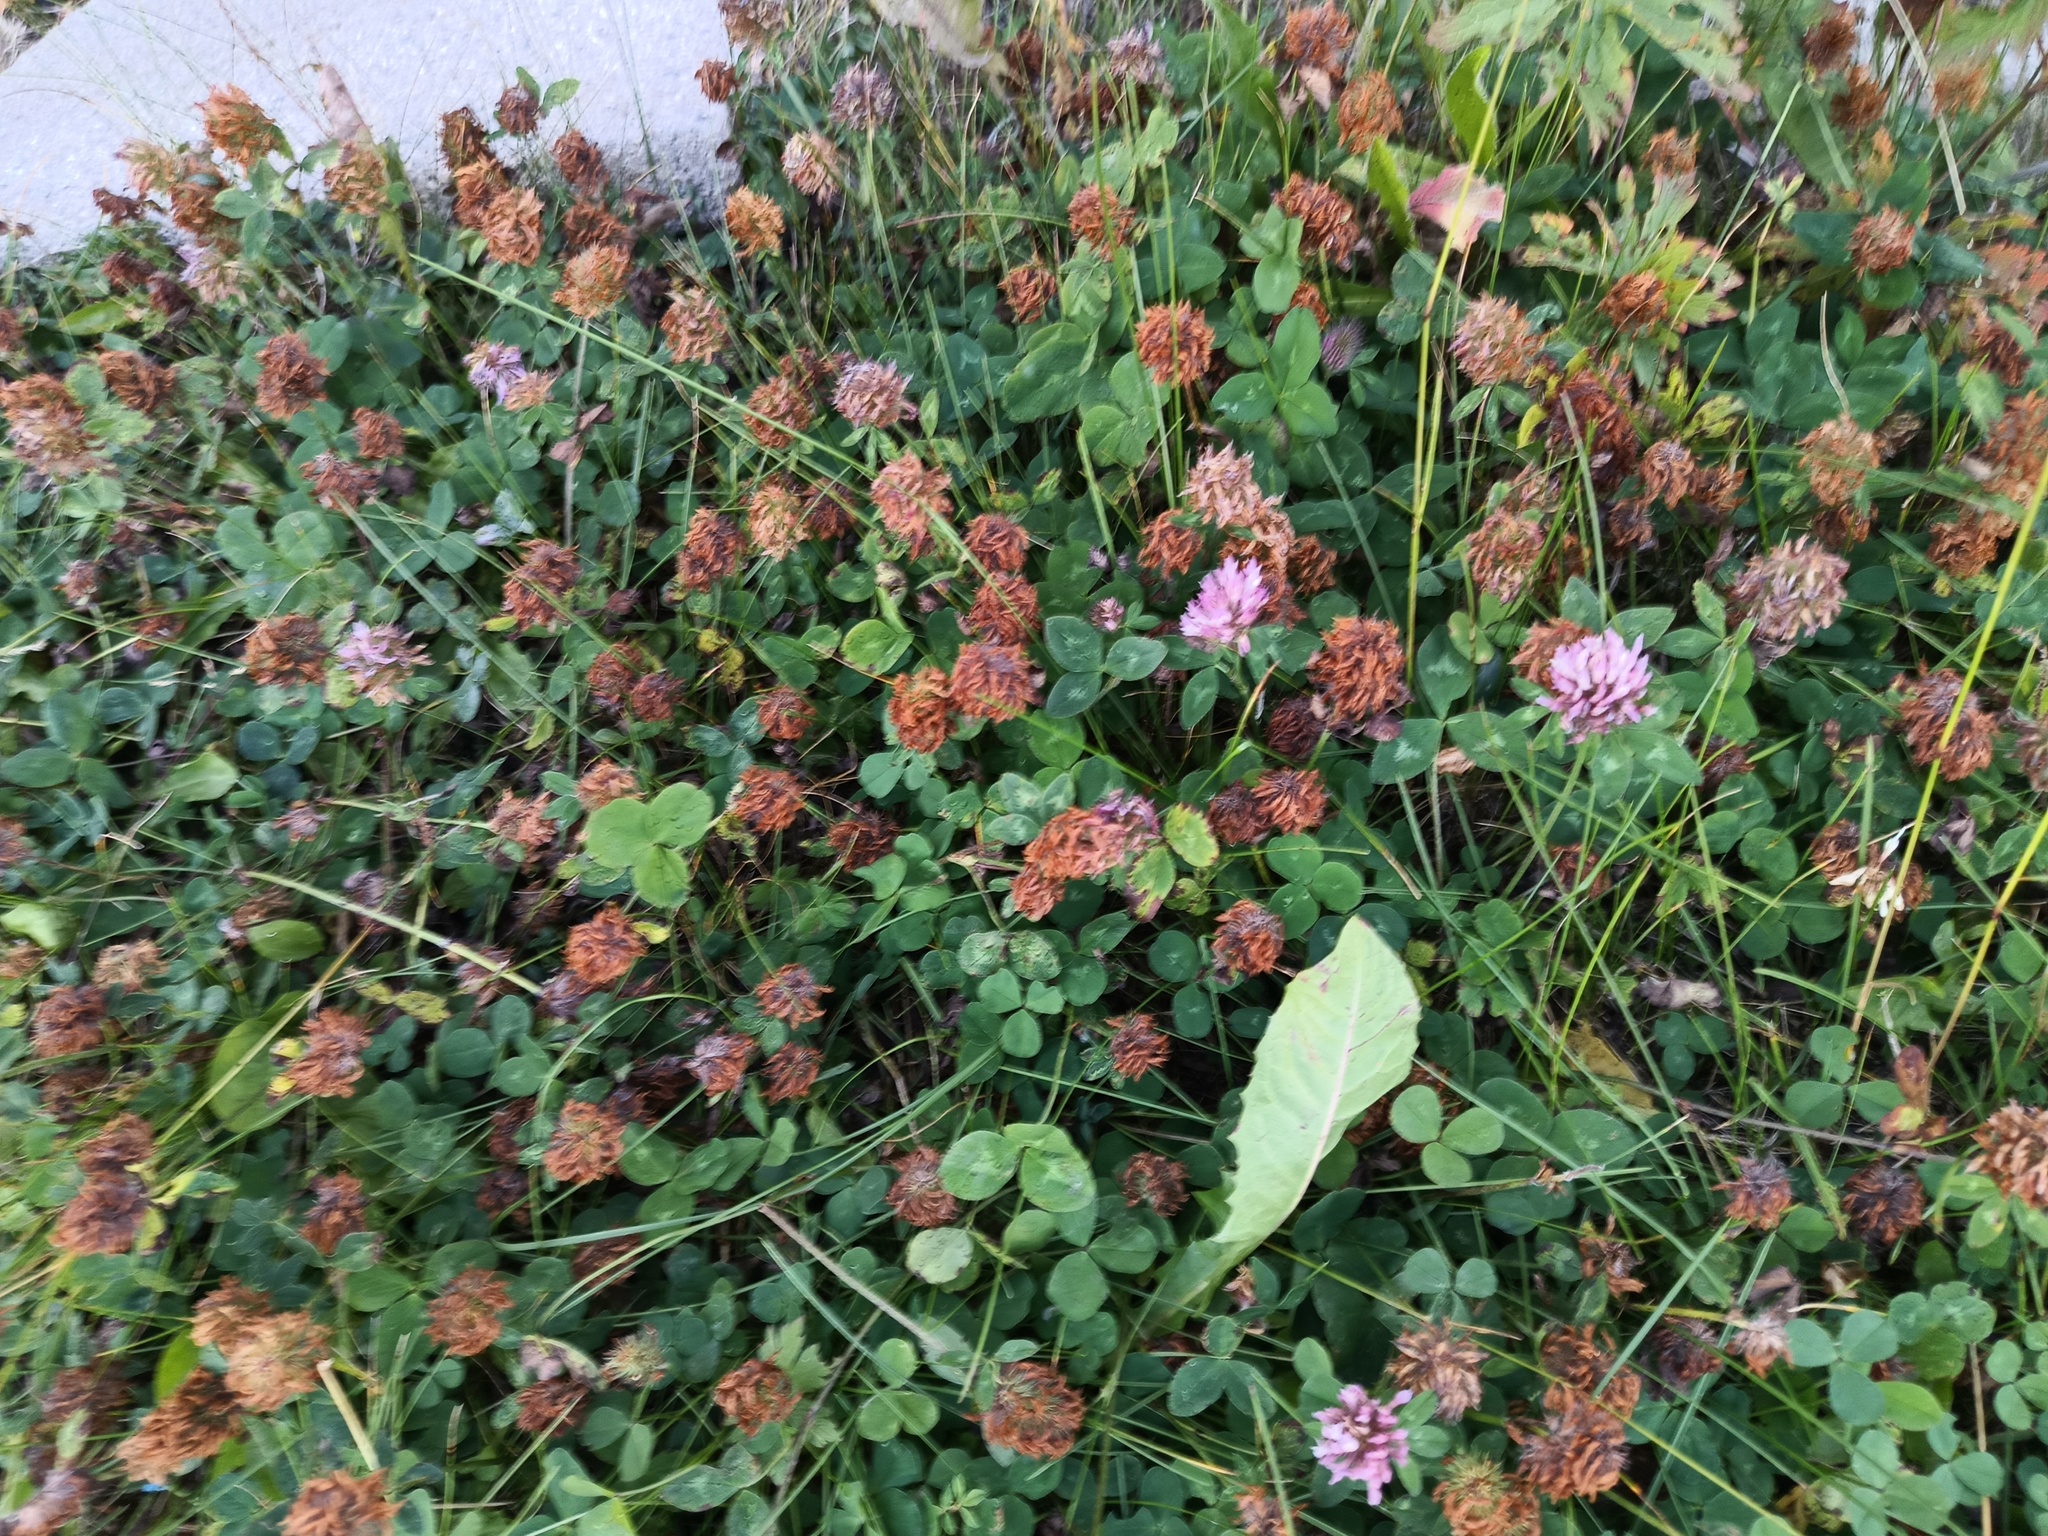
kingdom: Plantae
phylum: Tracheophyta
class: Magnoliopsida
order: Fabales
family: Fabaceae
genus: Trifolium
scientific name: Trifolium pratense
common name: Red clover
